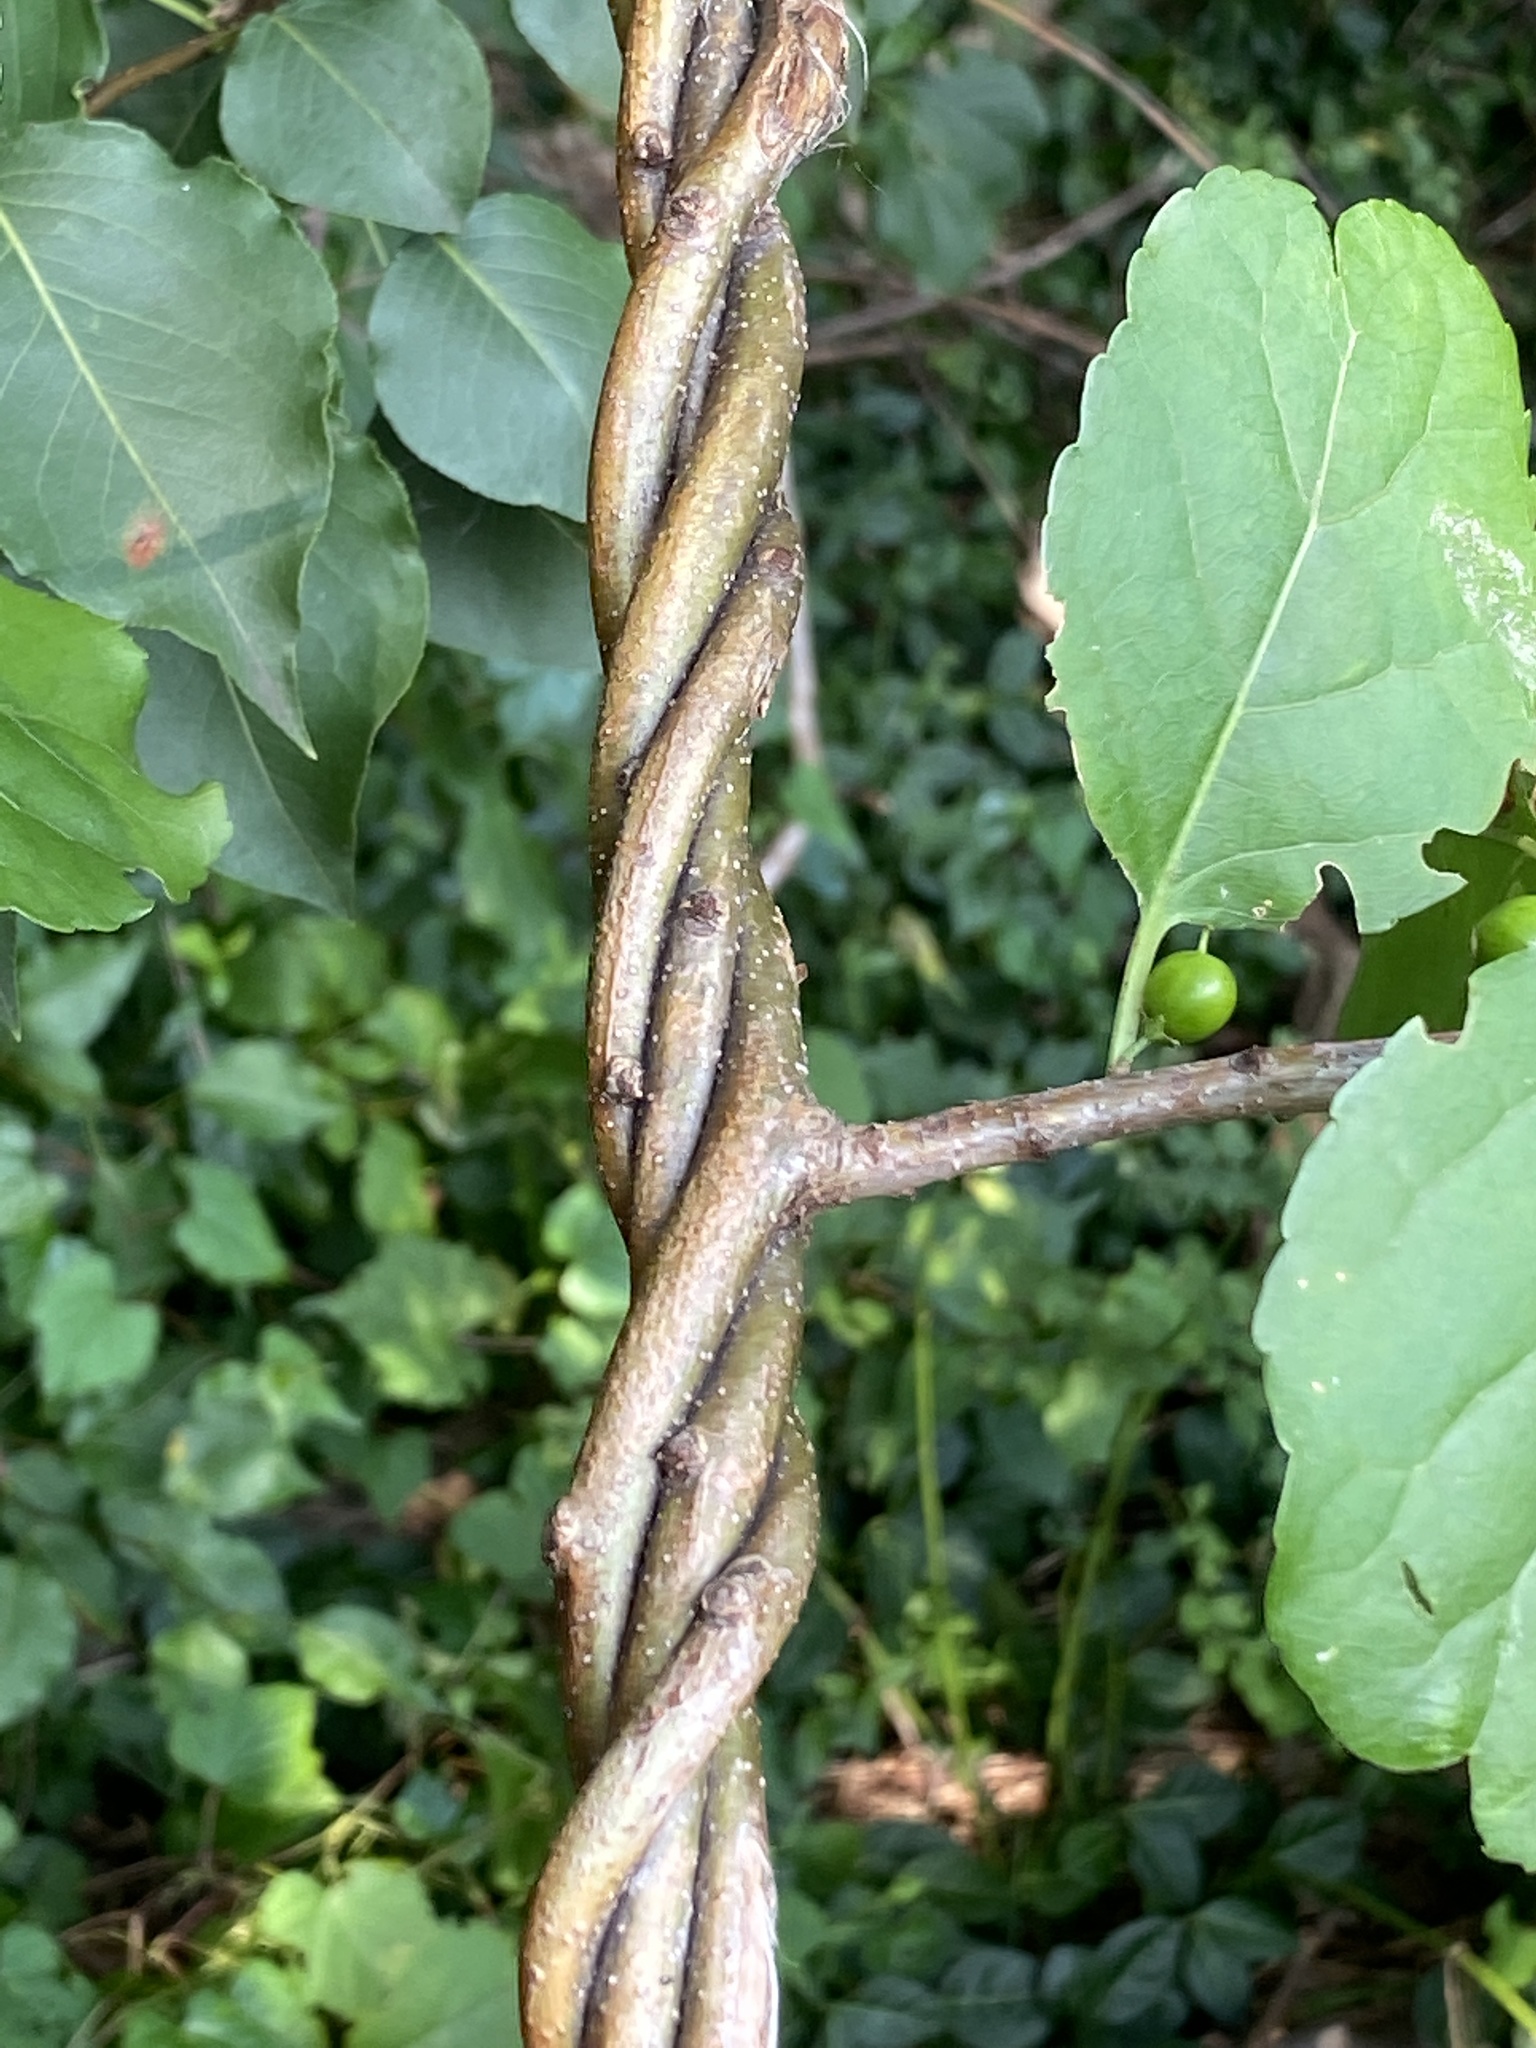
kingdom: Plantae
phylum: Tracheophyta
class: Magnoliopsida
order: Celastrales
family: Celastraceae
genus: Celastrus
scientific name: Celastrus orbiculatus
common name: Oriental bittersweet
